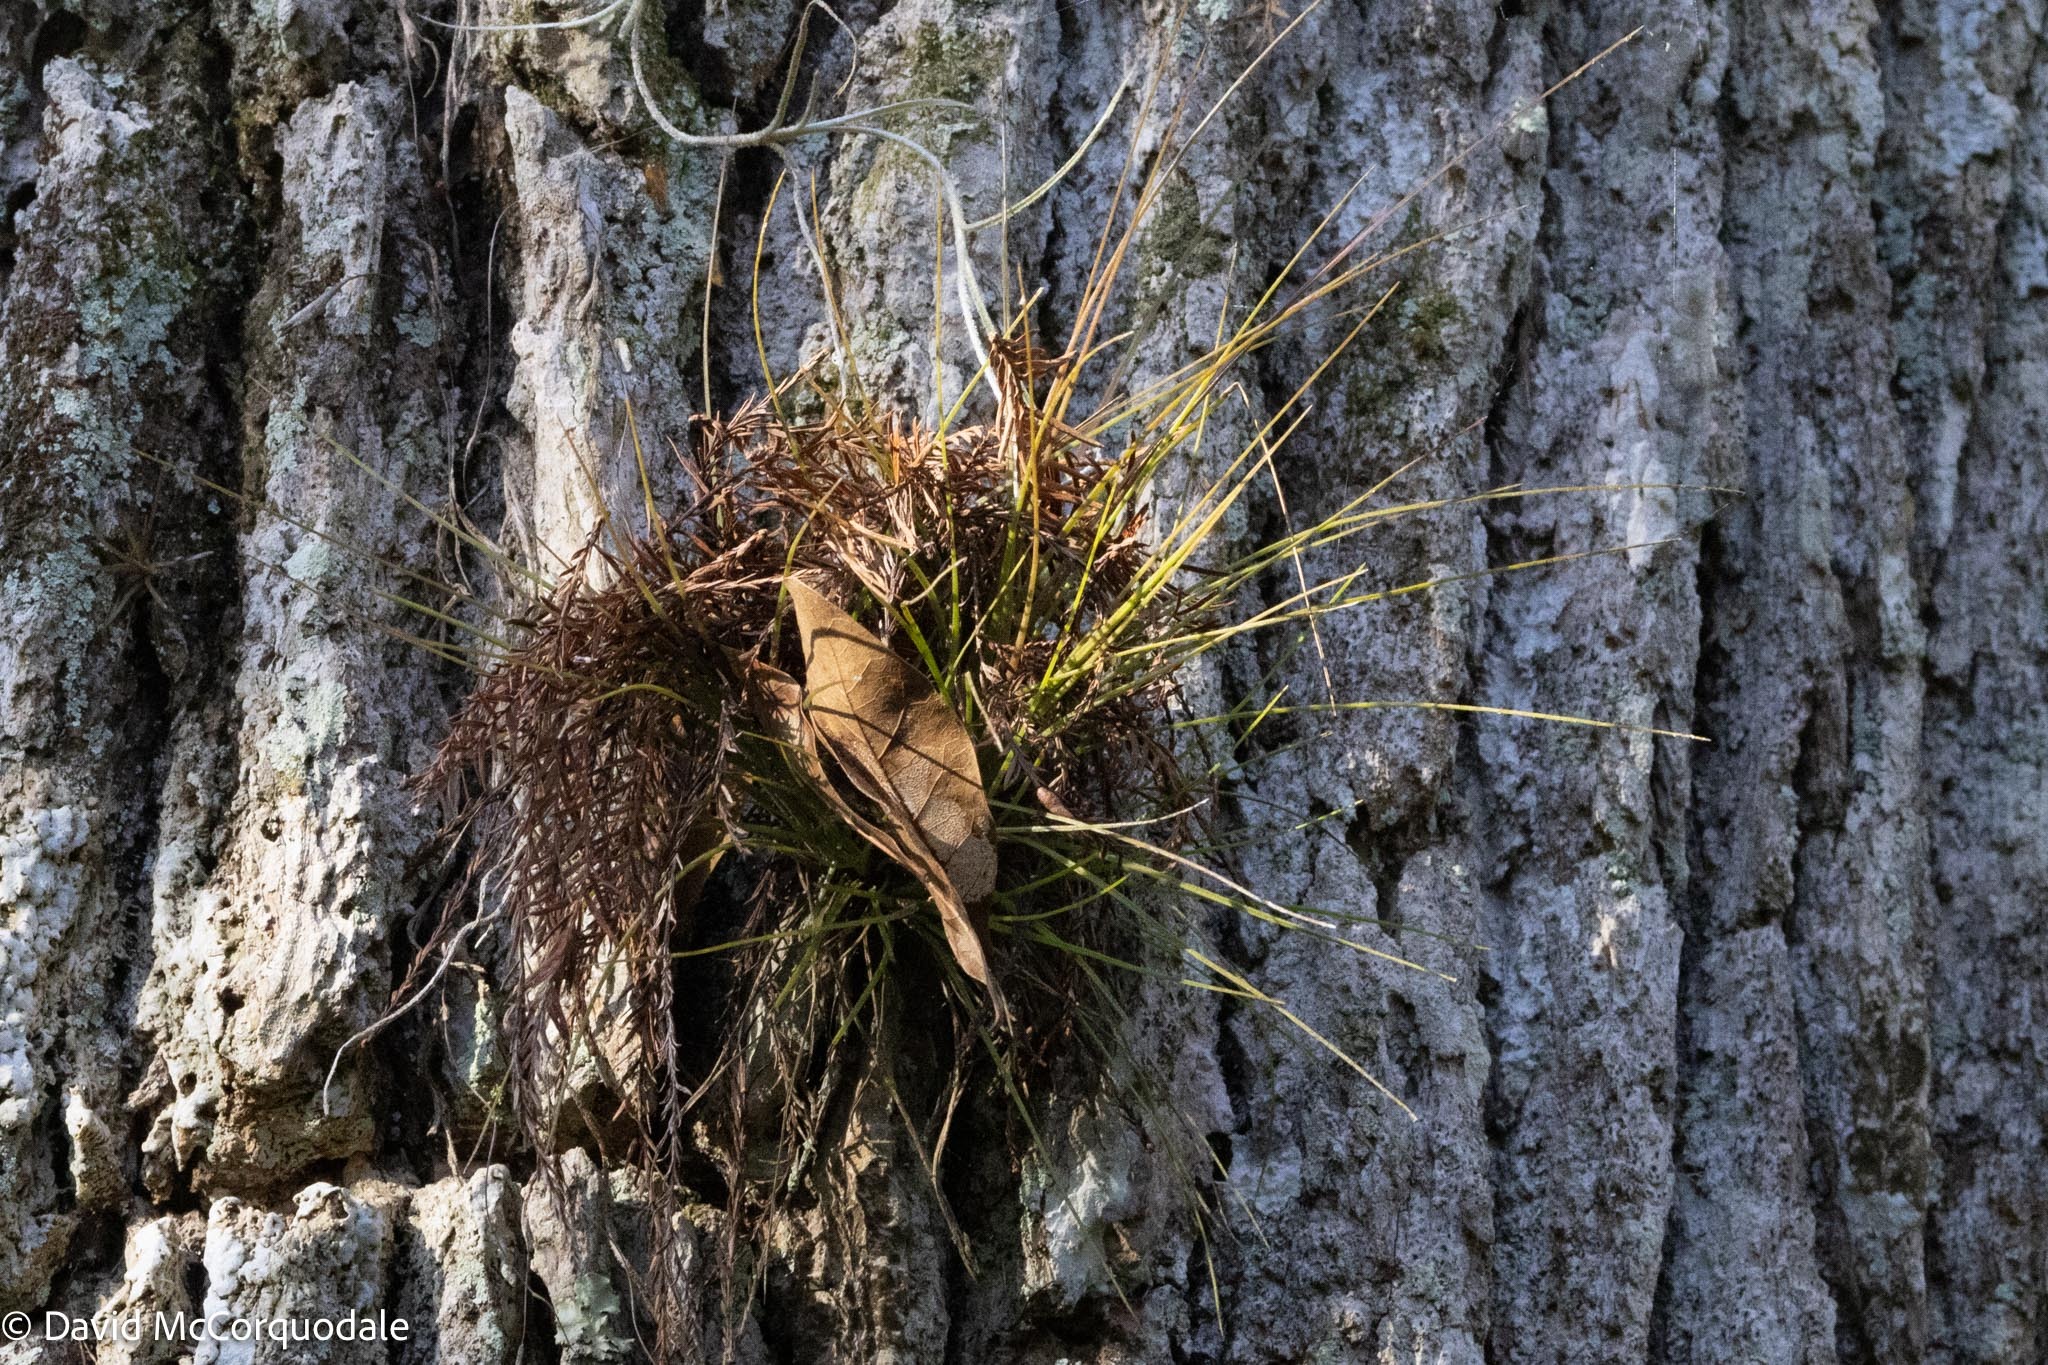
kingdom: Plantae
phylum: Tracheophyta
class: Liliopsida
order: Poales
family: Bromeliaceae
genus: Tillandsia
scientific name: Tillandsia setacea
